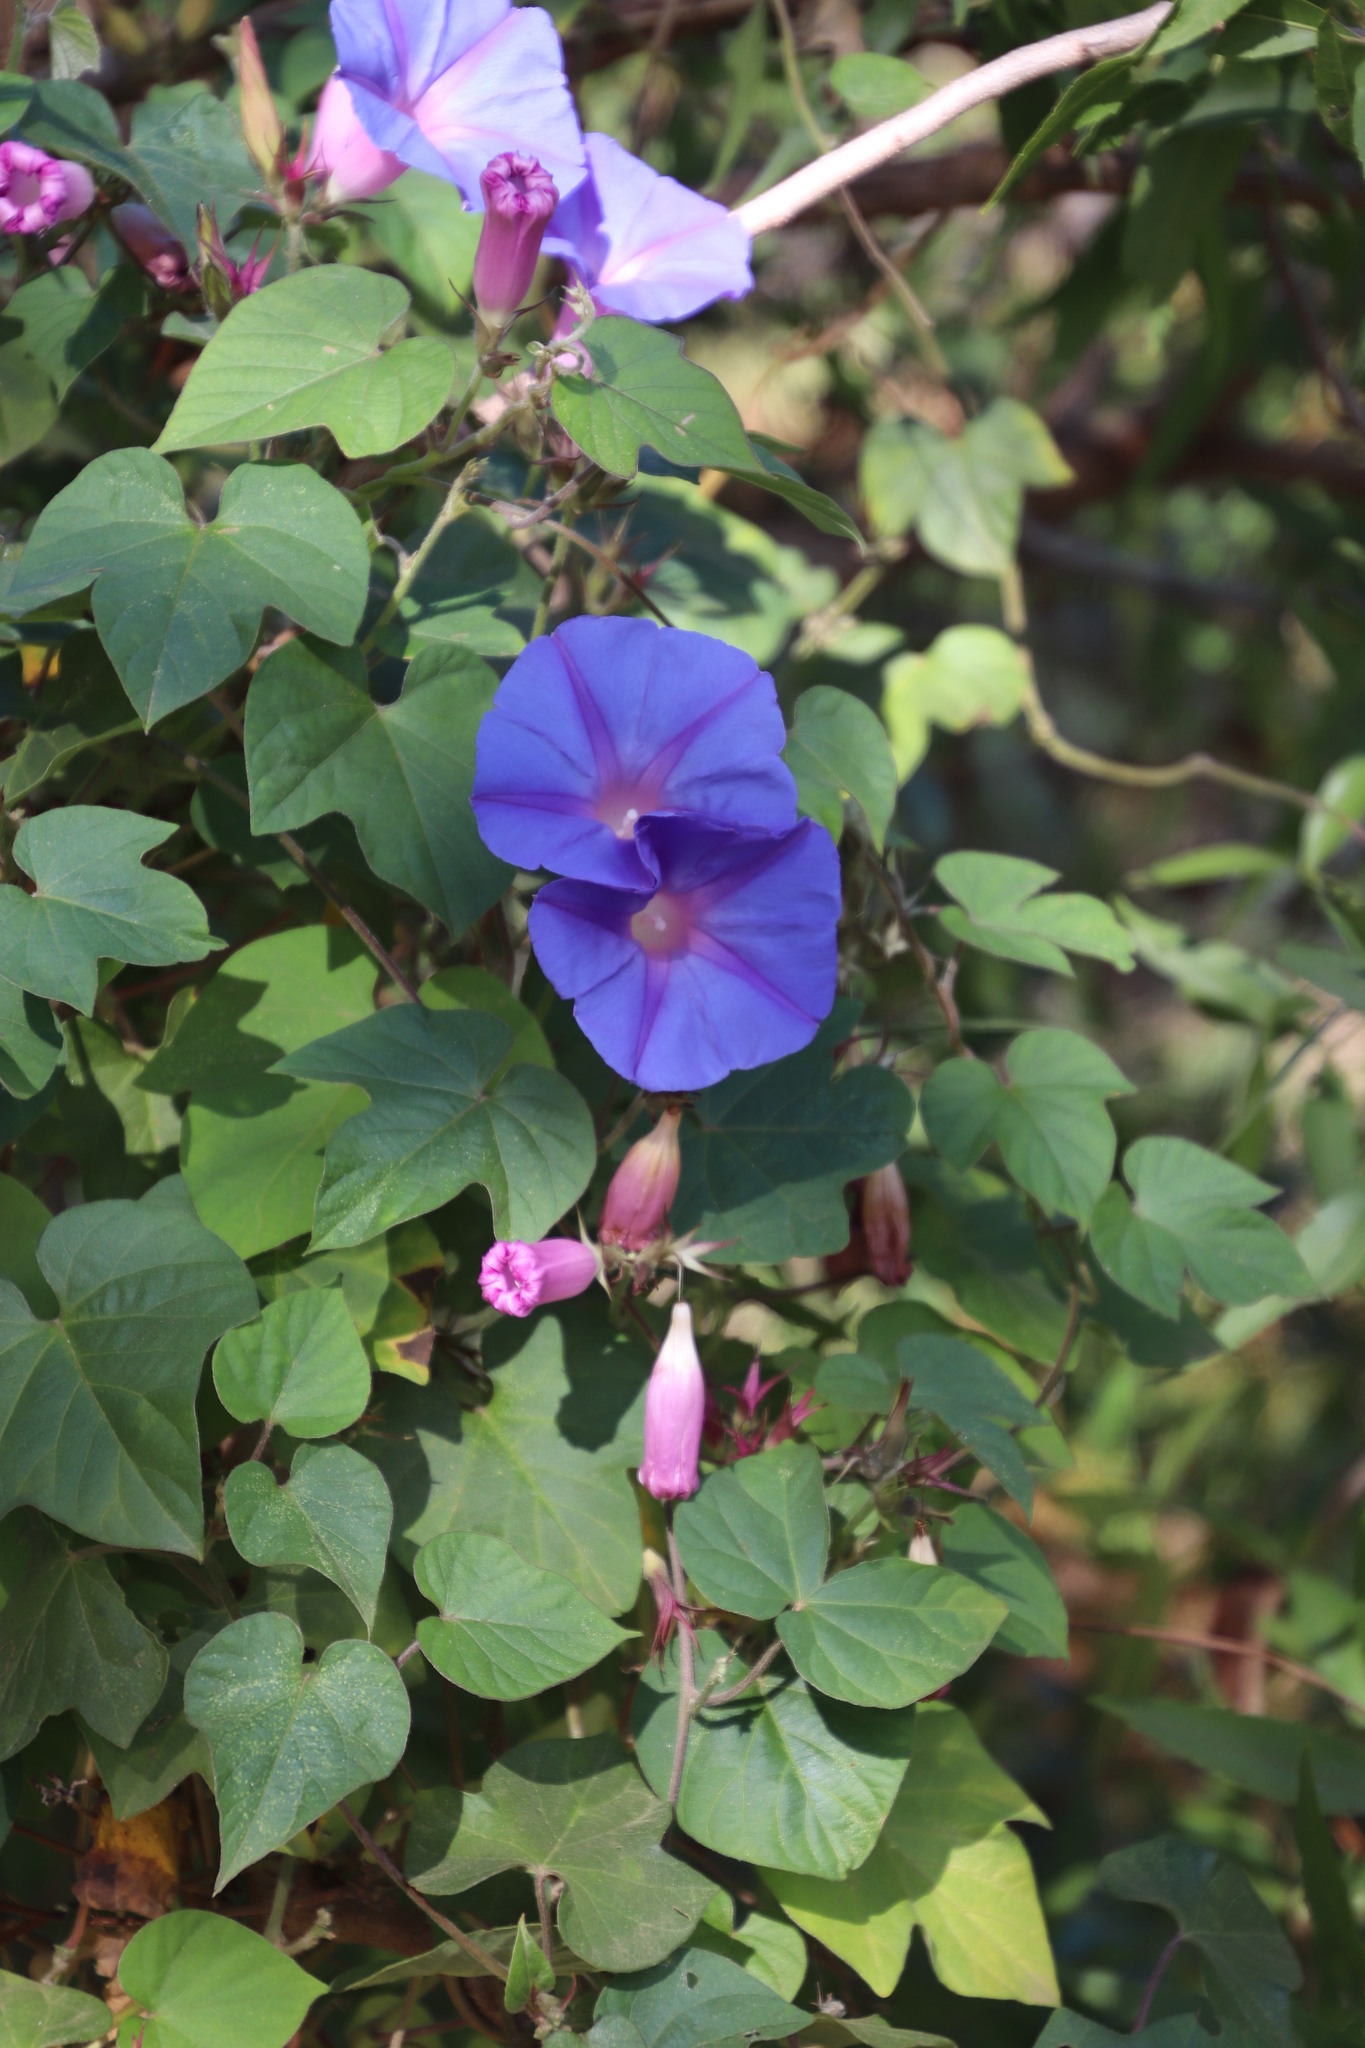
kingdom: Plantae
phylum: Tracheophyta
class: Magnoliopsida
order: Solanales
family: Convolvulaceae
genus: Ipomoea
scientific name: Ipomoea indica
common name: Blue dawnflower
